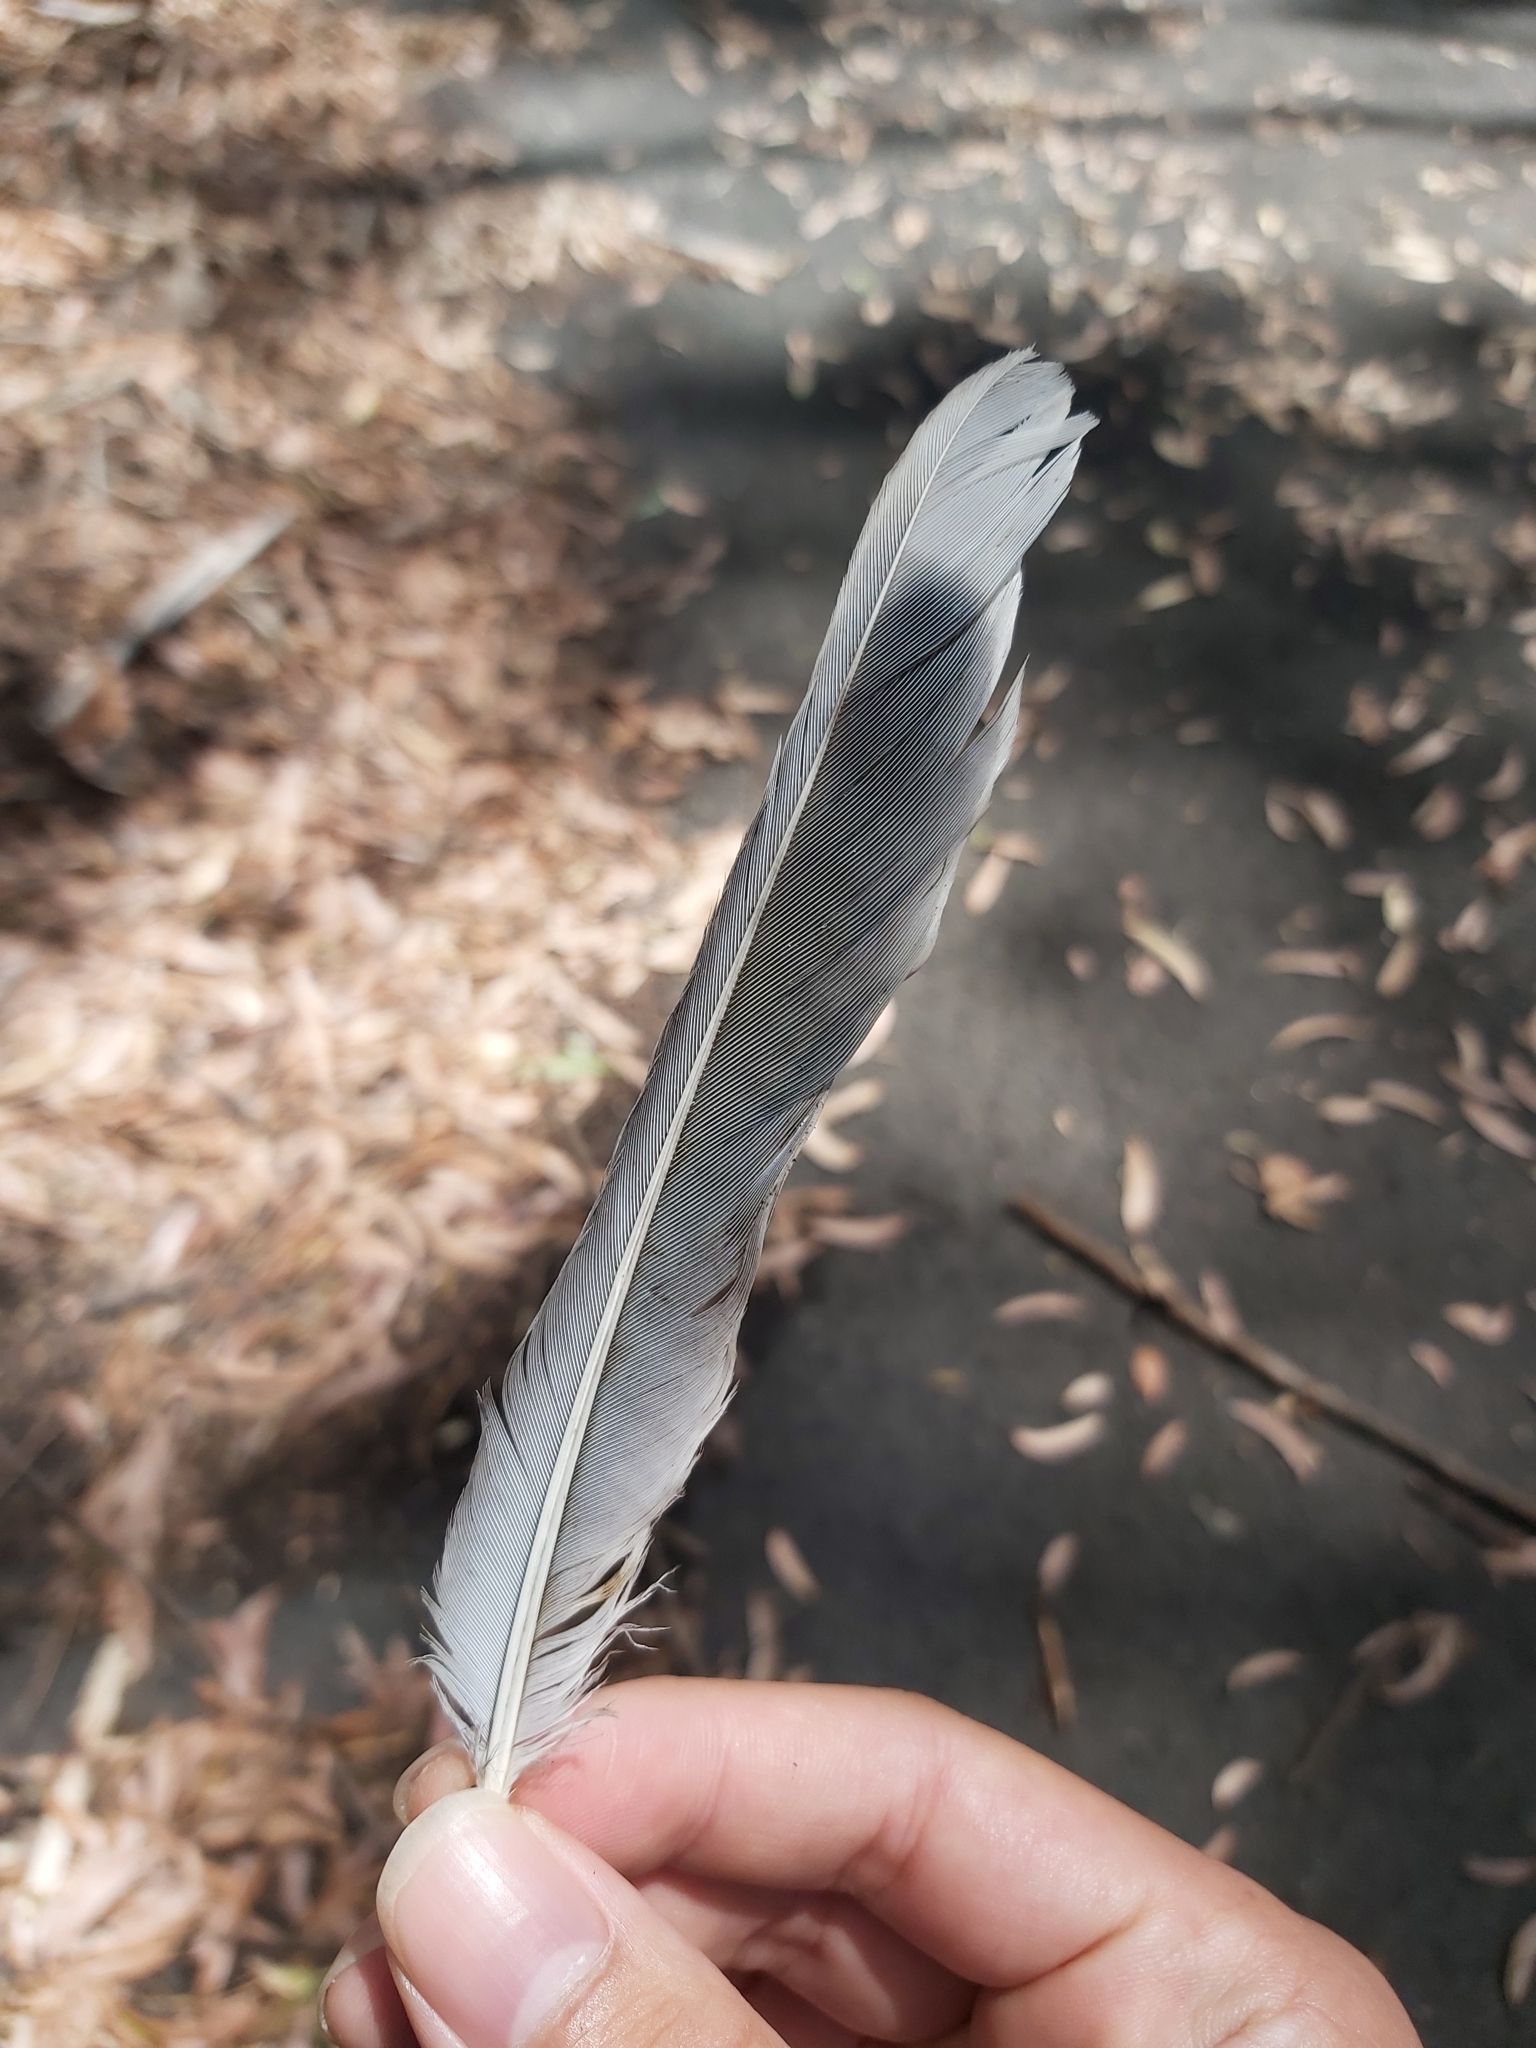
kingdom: Animalia
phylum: Chordata
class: Aves
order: Passeriformes
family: Meliphagidae
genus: Manorina
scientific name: Manorina melanocephala
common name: Noisy miner
